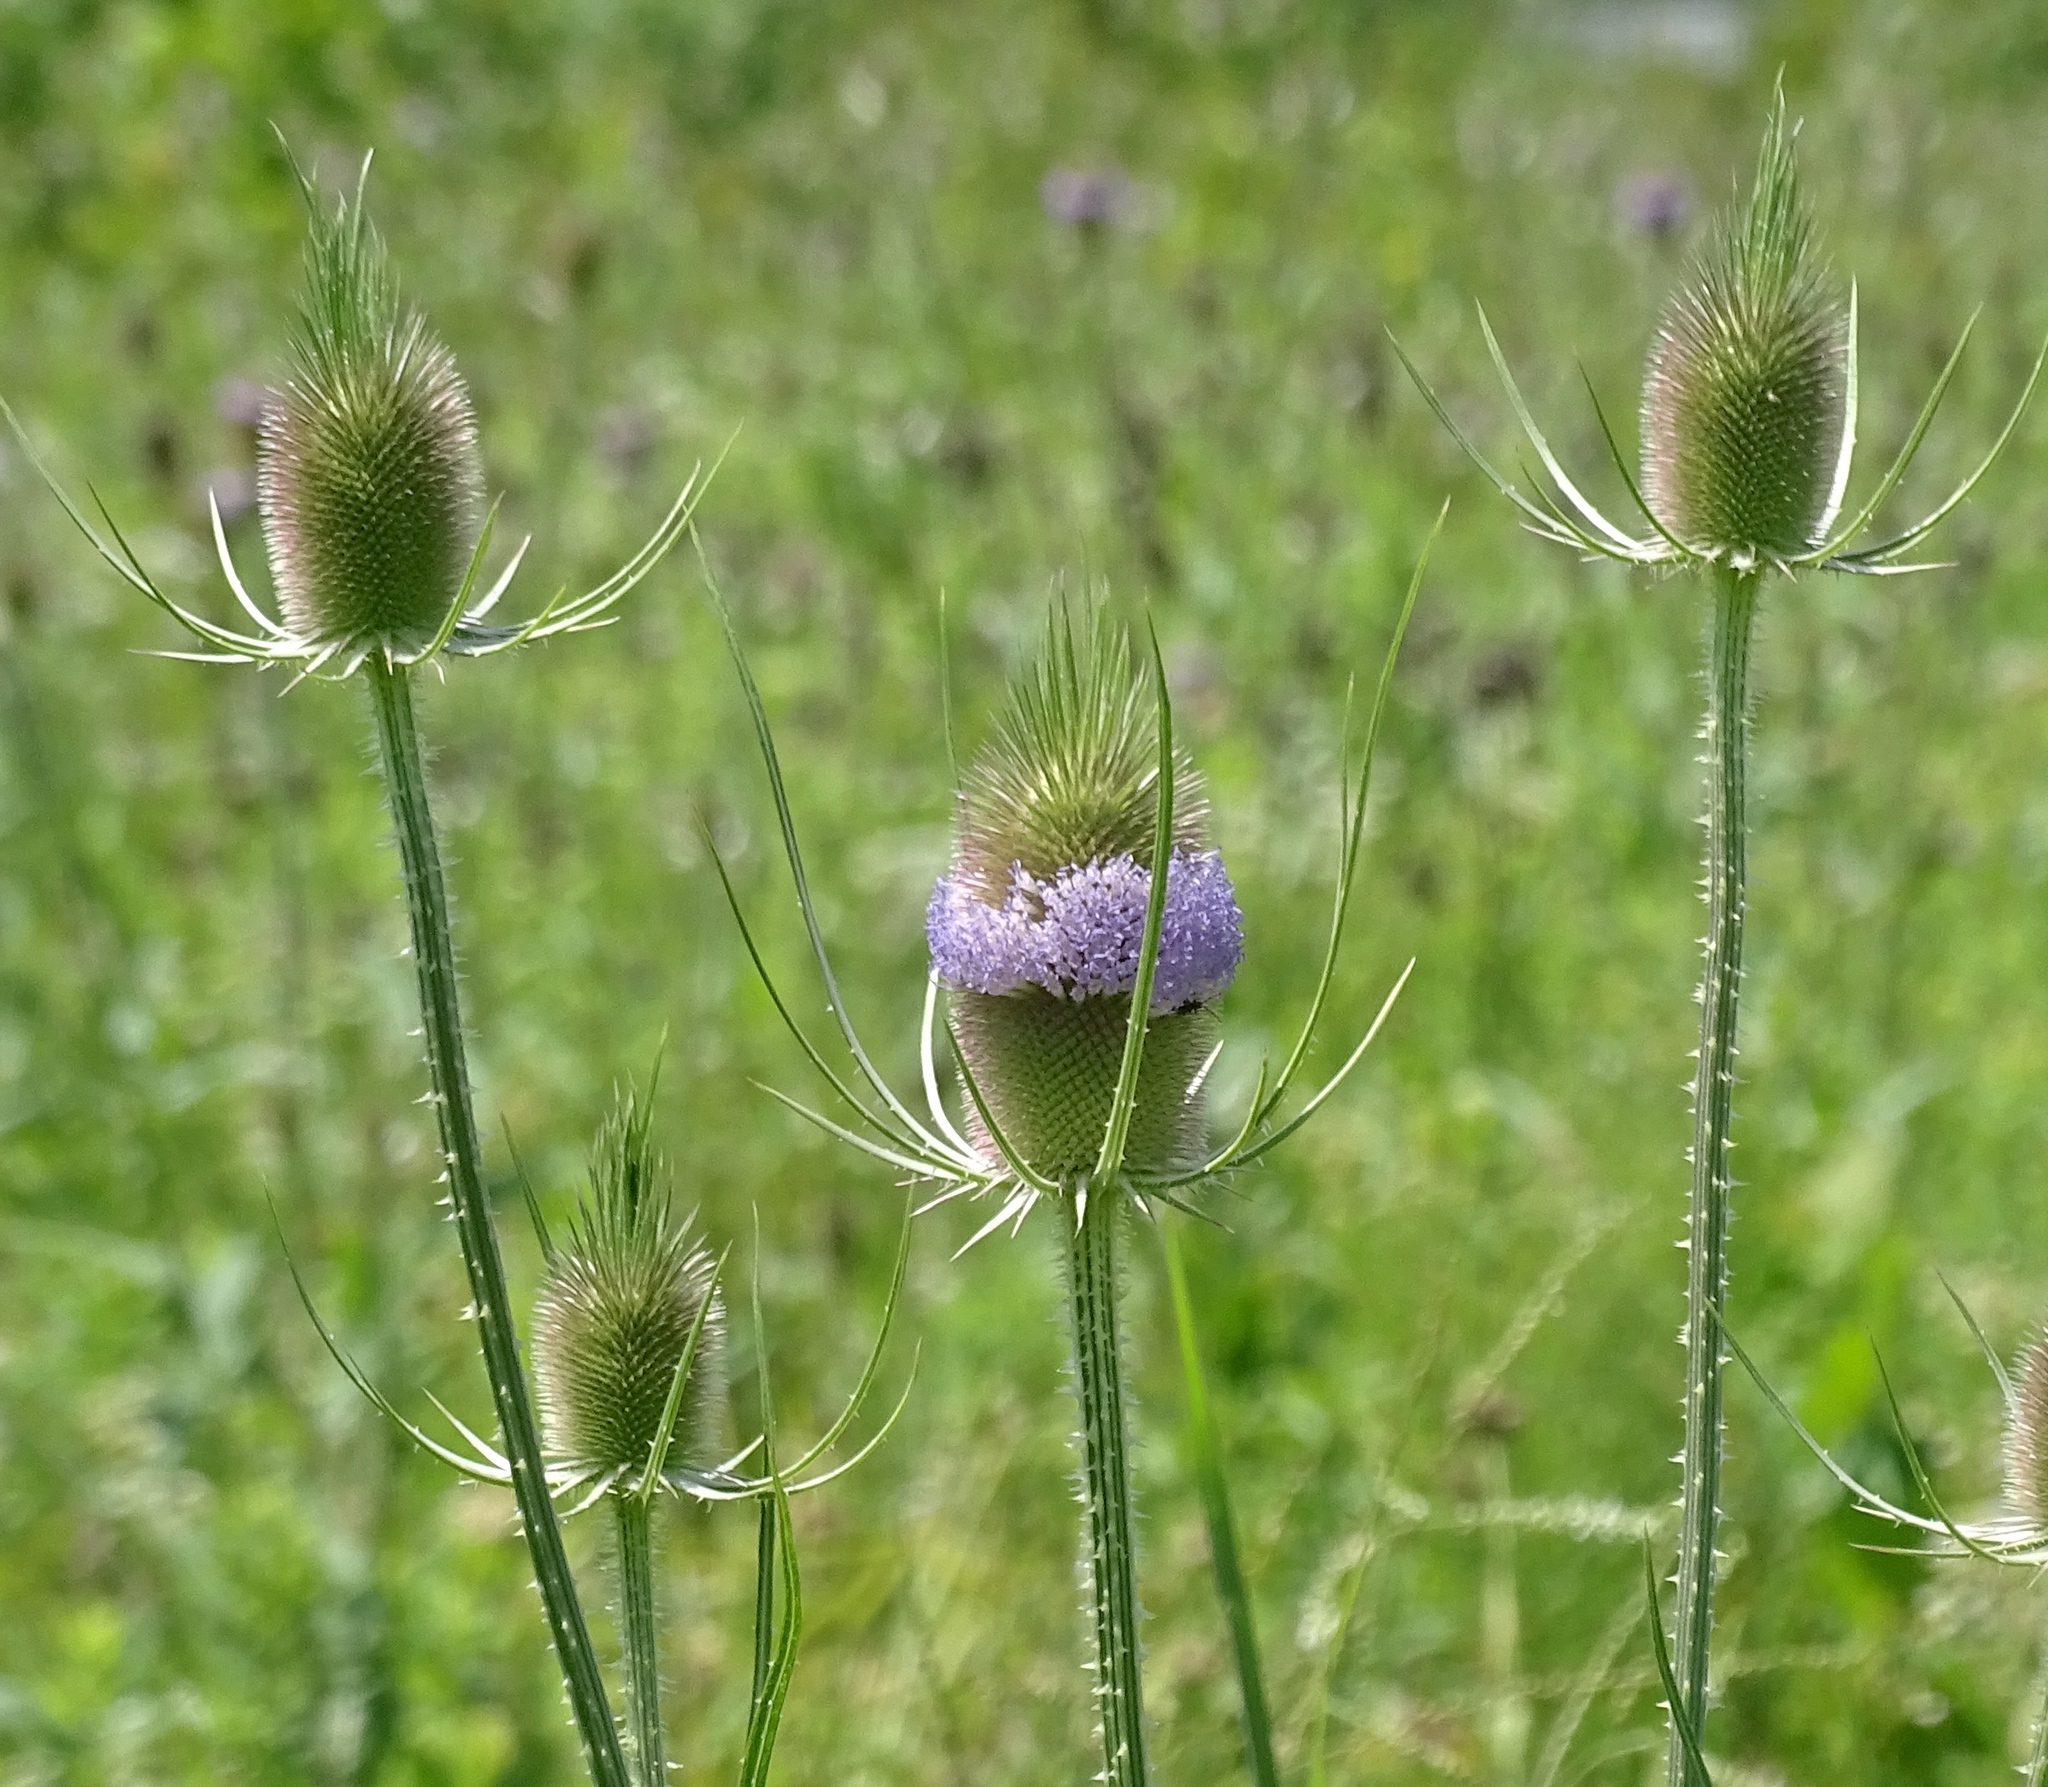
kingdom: Plantae
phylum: Tracheophyta
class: Magnoliopsida
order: Dipsacales
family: Caprifoliaceae
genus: Dipsacus
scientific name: Dipsacus fullonum
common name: Teasel
